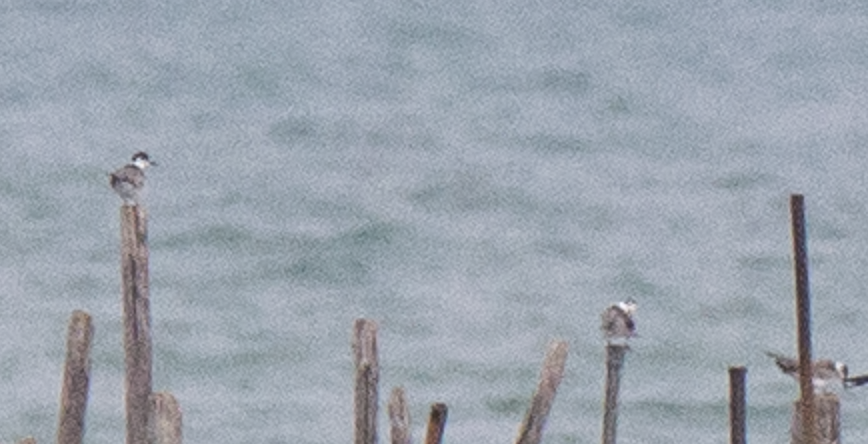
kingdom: Animalia
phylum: Chordata
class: Aves
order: Charadriiformes
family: Laridae
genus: Chlidonias
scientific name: Chlidonias niger
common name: Black tern
